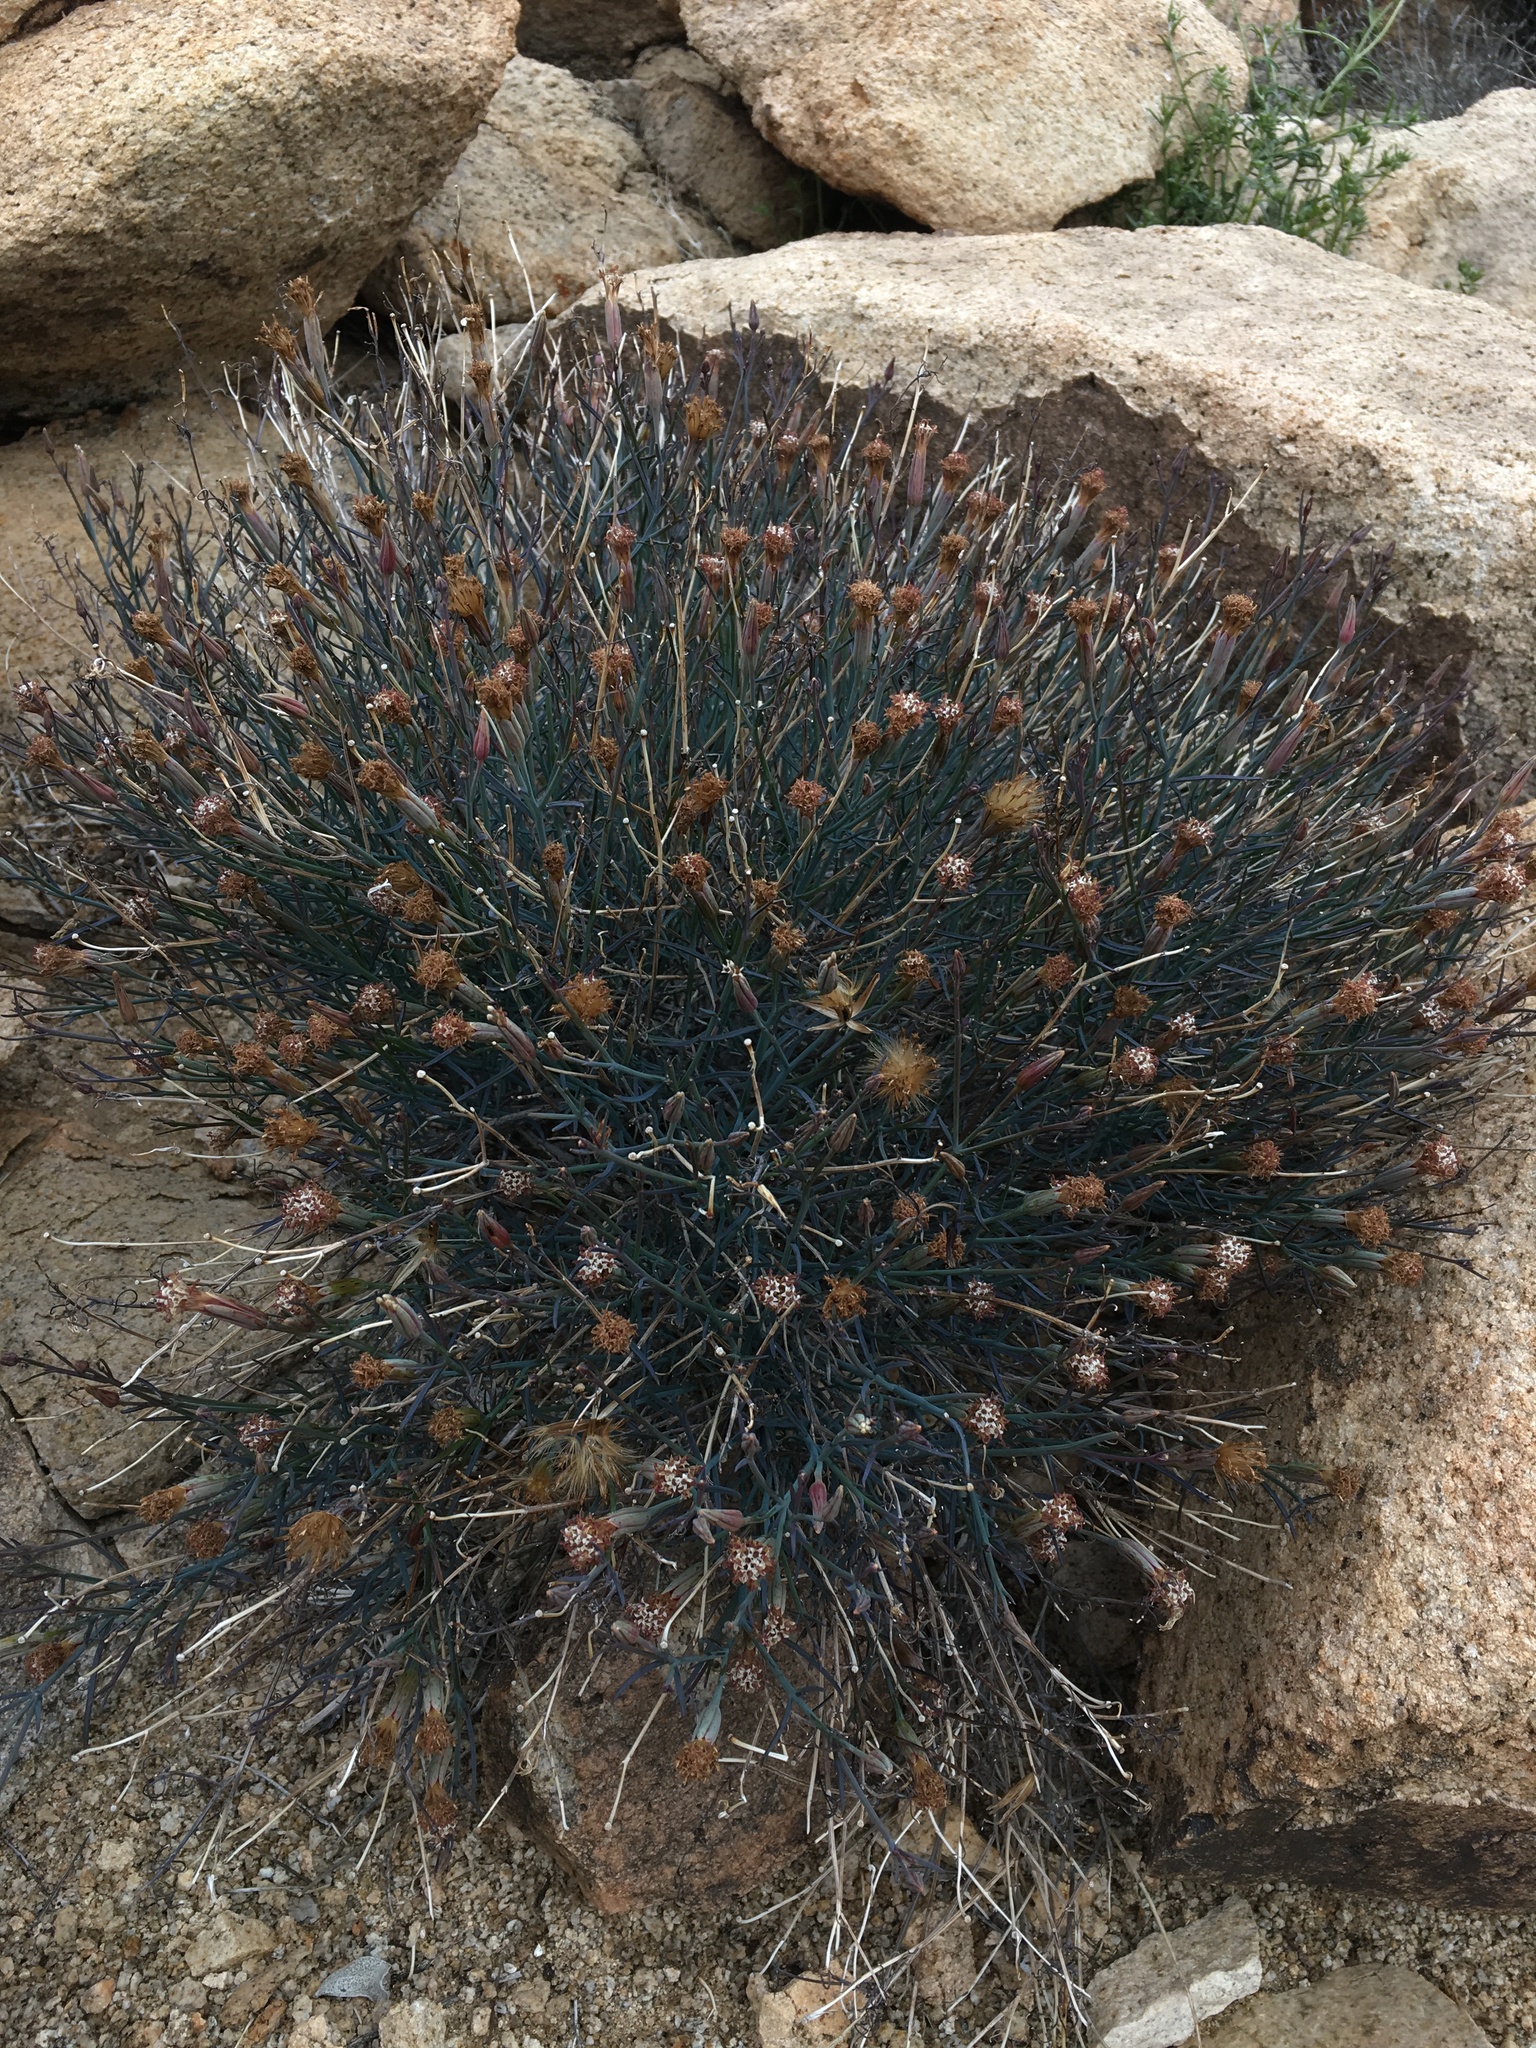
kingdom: Plantae
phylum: Tracheophyta
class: Magnoliopsida
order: Asterales
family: Asteraceae
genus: Porophyllum
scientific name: Porophyllum gracile
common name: Odora
